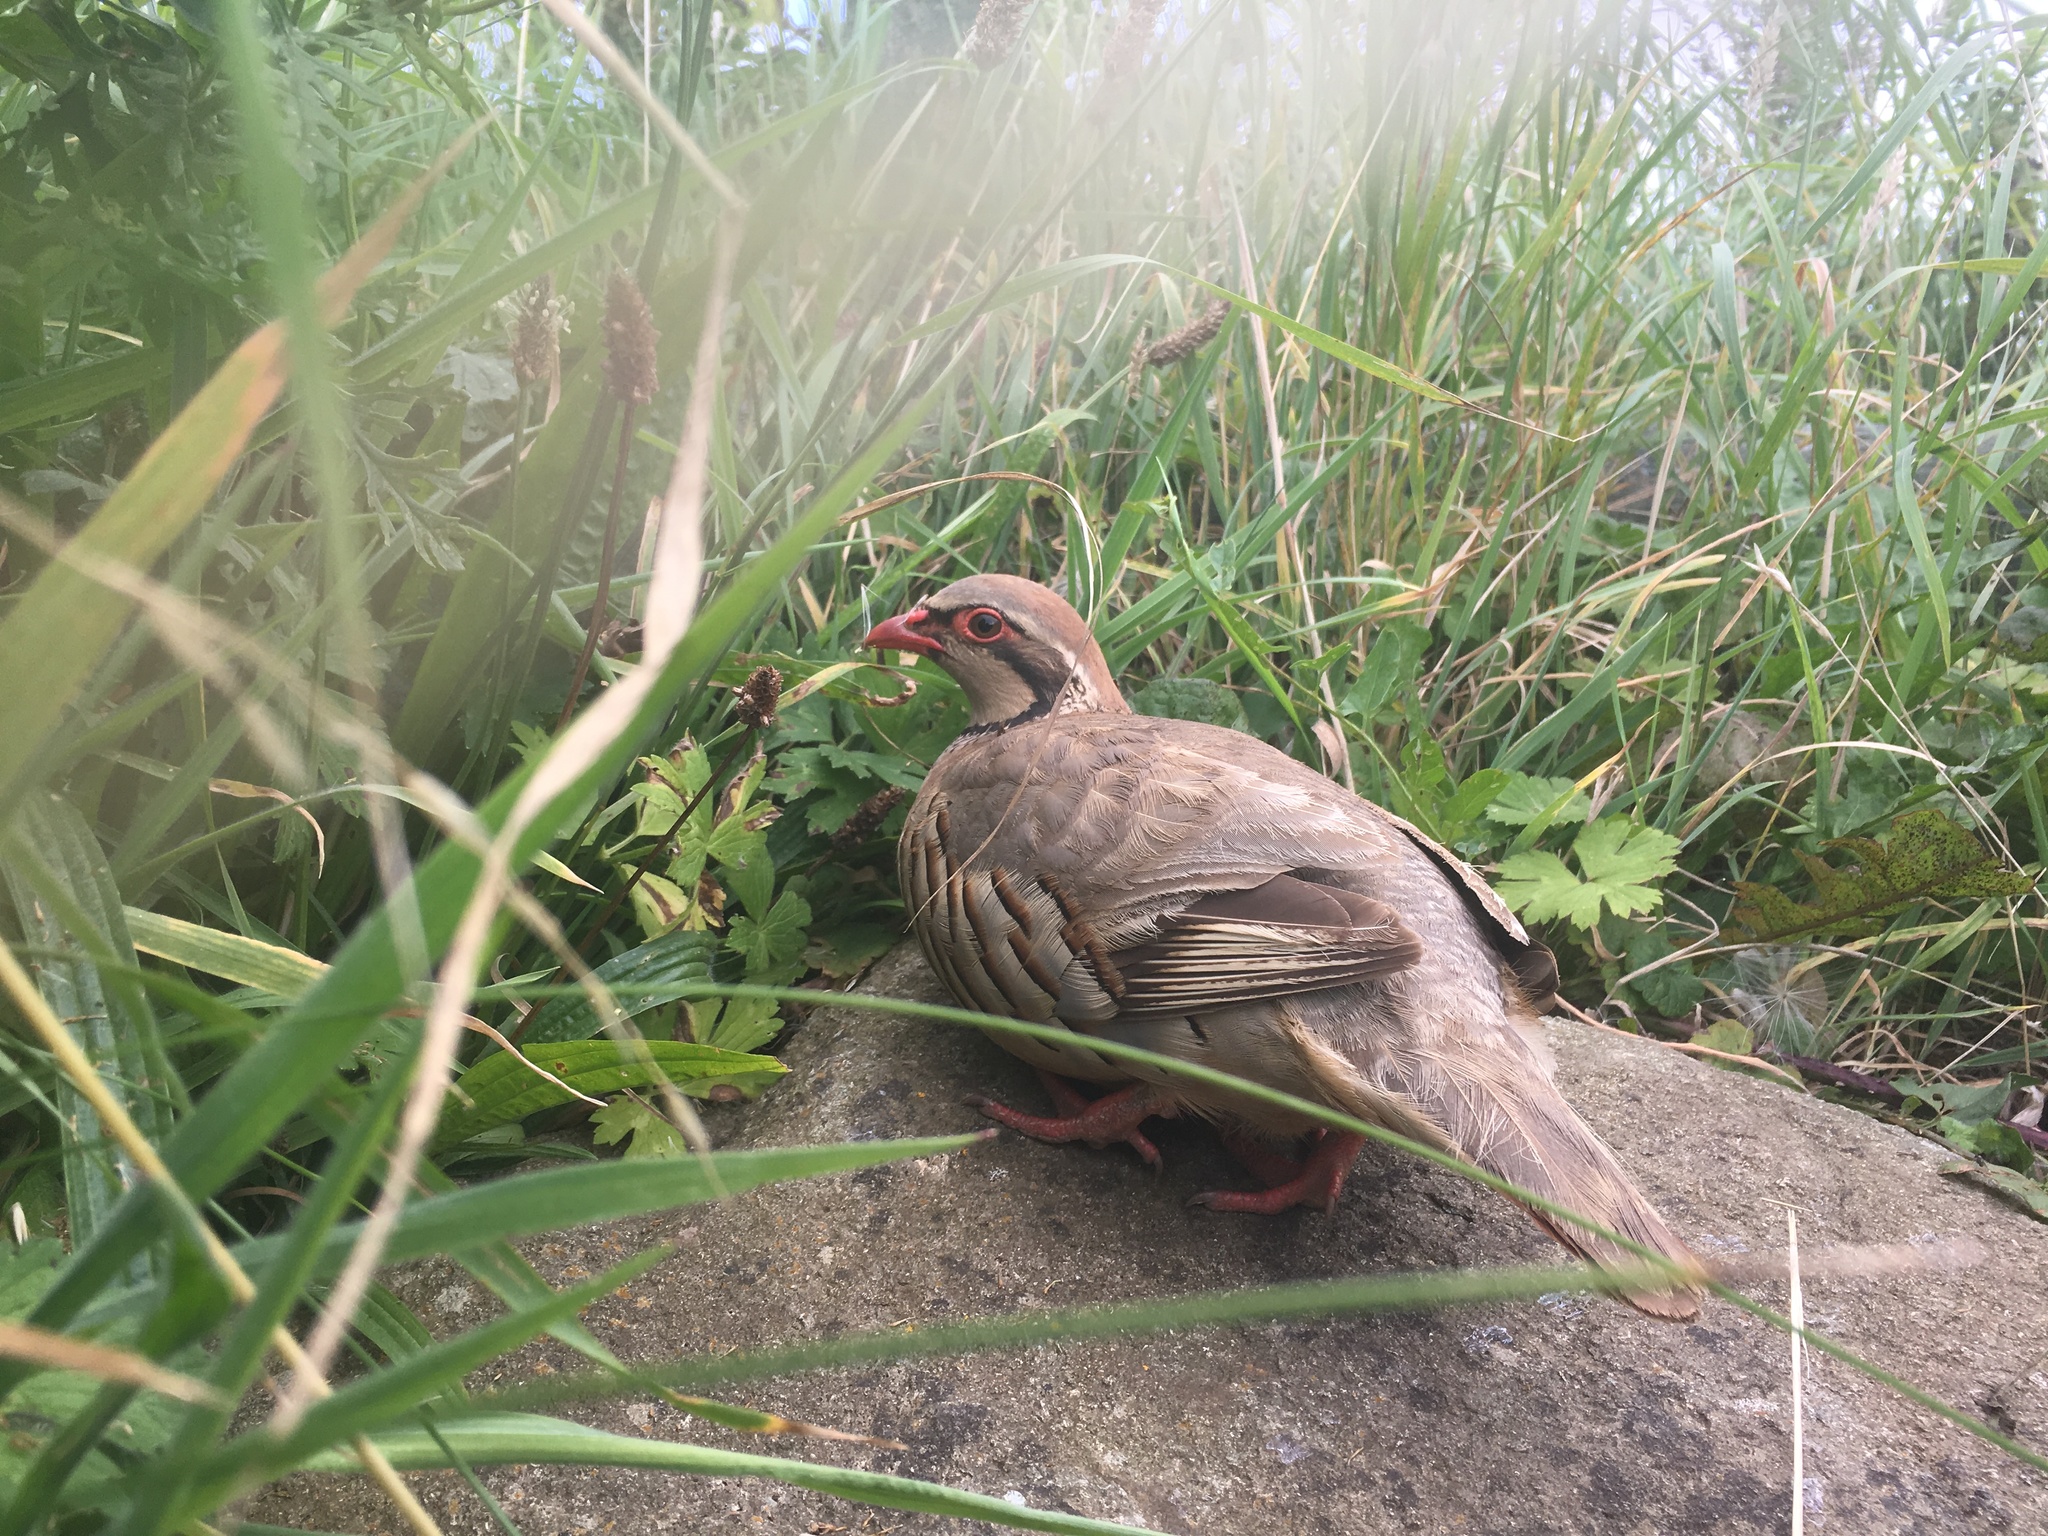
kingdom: Animalia
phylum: Chordata
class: Aves
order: Galliformes
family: Phasianidae
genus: Alectoris
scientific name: Alectoris rufa
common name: Red-legged partridge
